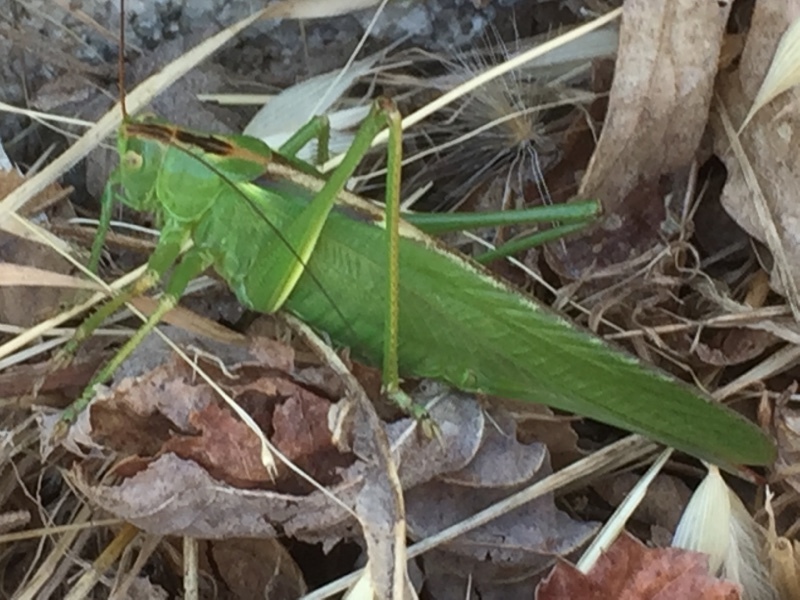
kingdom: Animalia
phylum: Arthropoda
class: Insecta
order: Orthoptera
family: Tettigoniidae
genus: Tettigonia
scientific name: Tettigonia viridissima
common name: Great green bush-cricket
